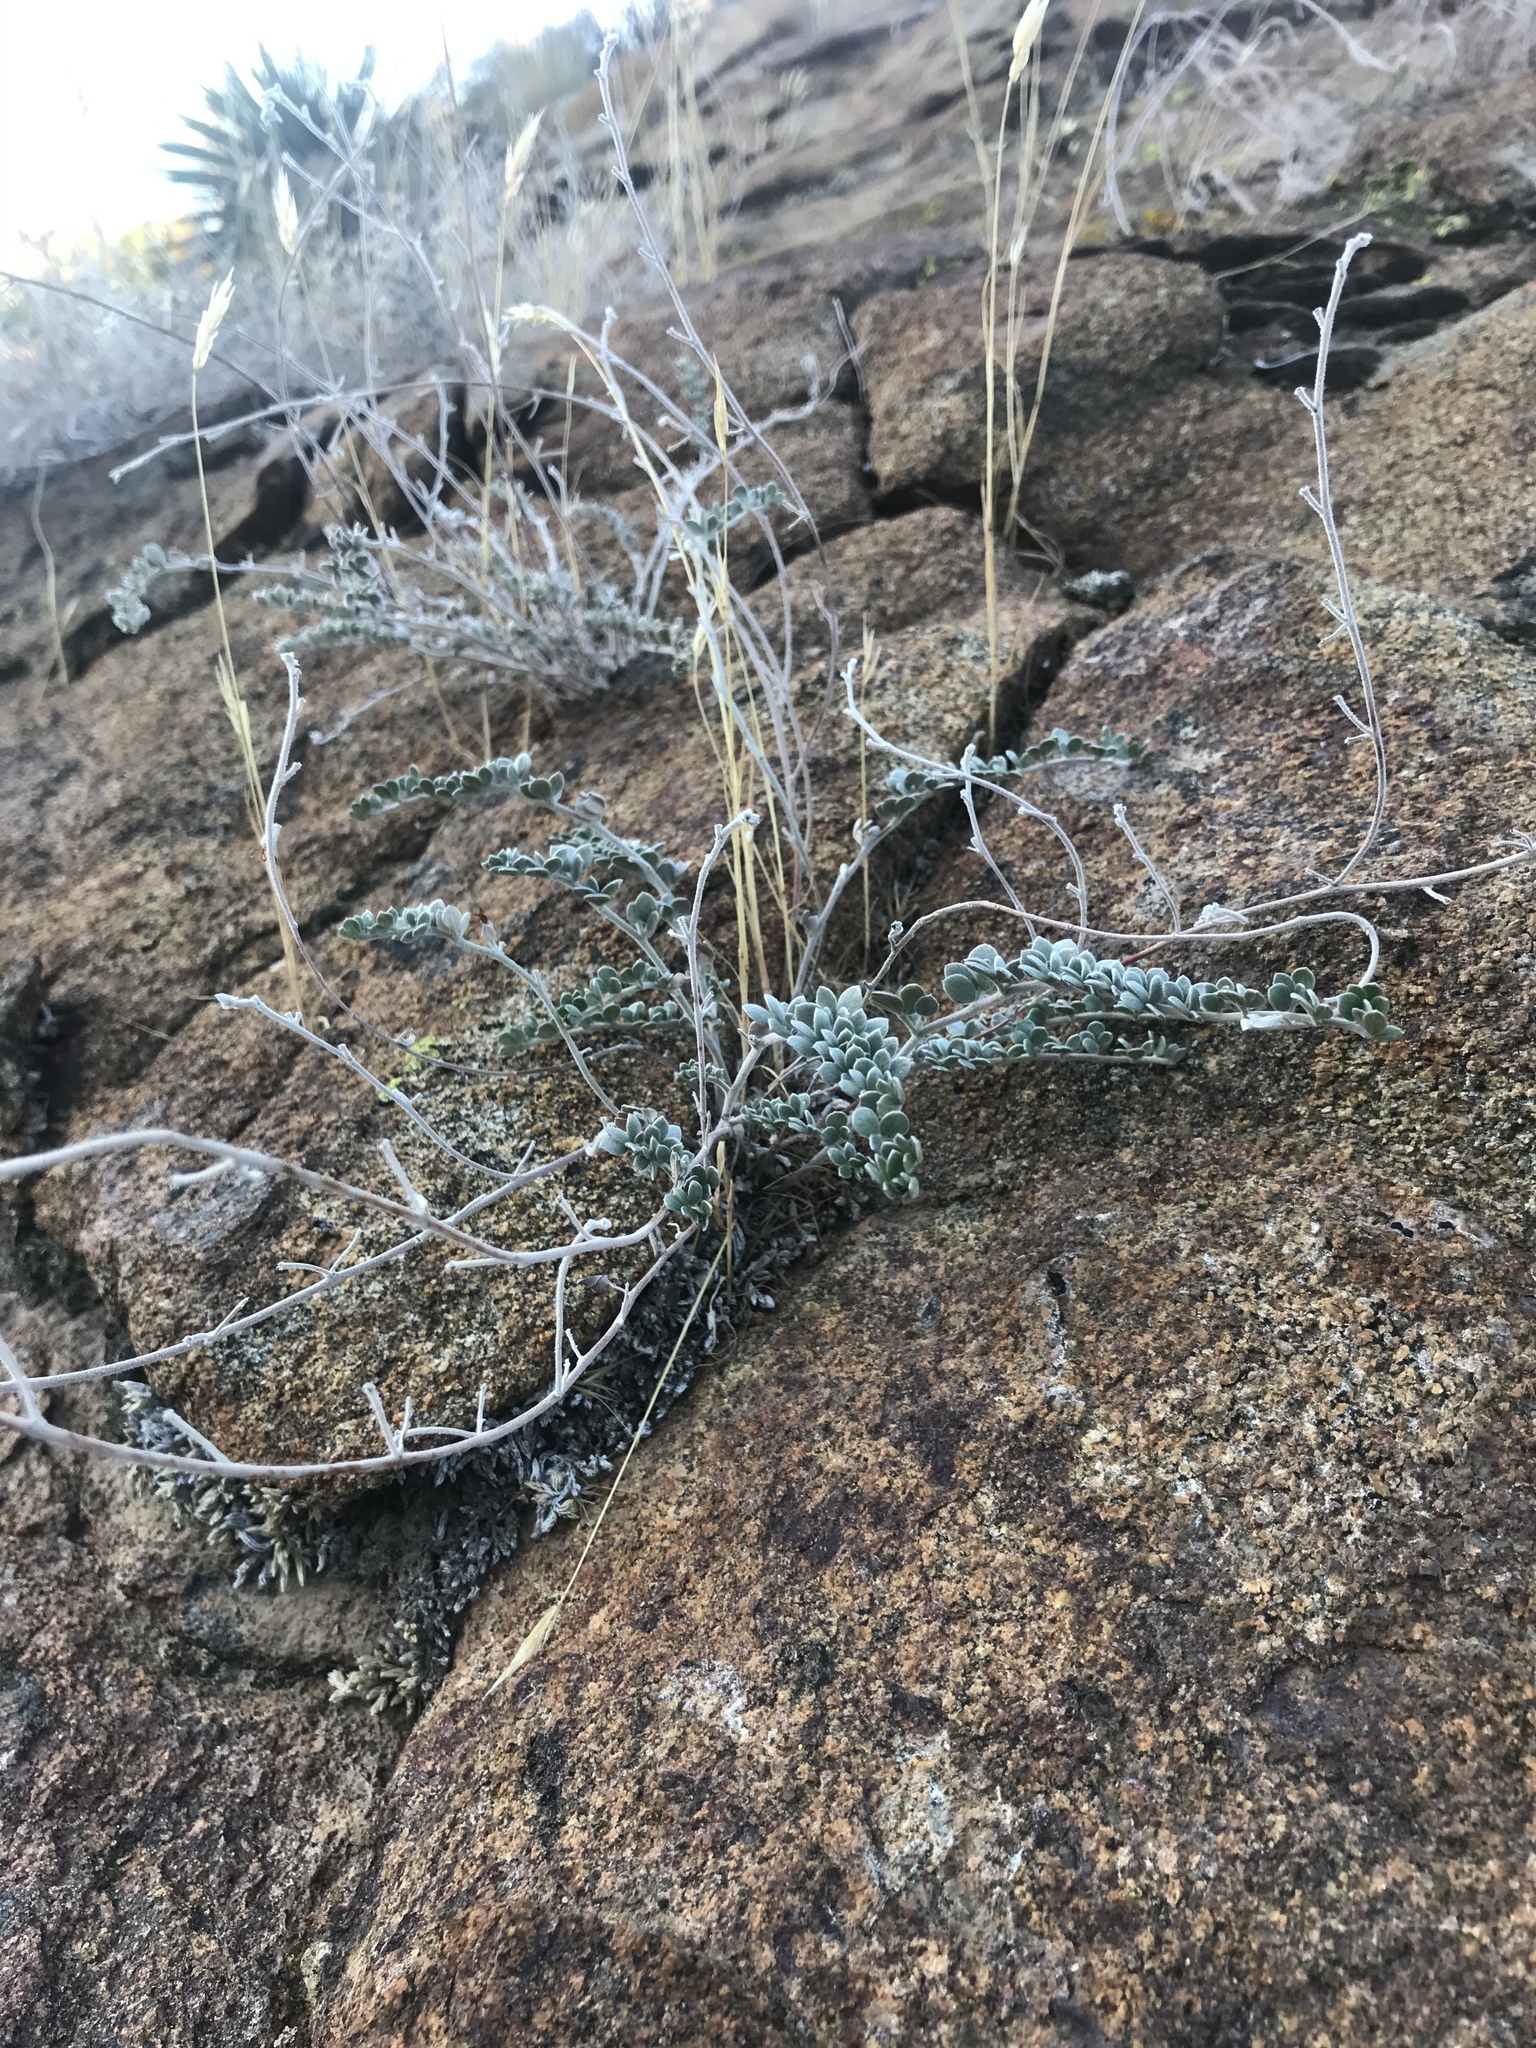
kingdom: Plantae
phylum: Tracheophyta
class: Magnoliopsida
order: Fabales
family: Fabaceae
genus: Acmispon
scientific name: Acmispon argophyllus
